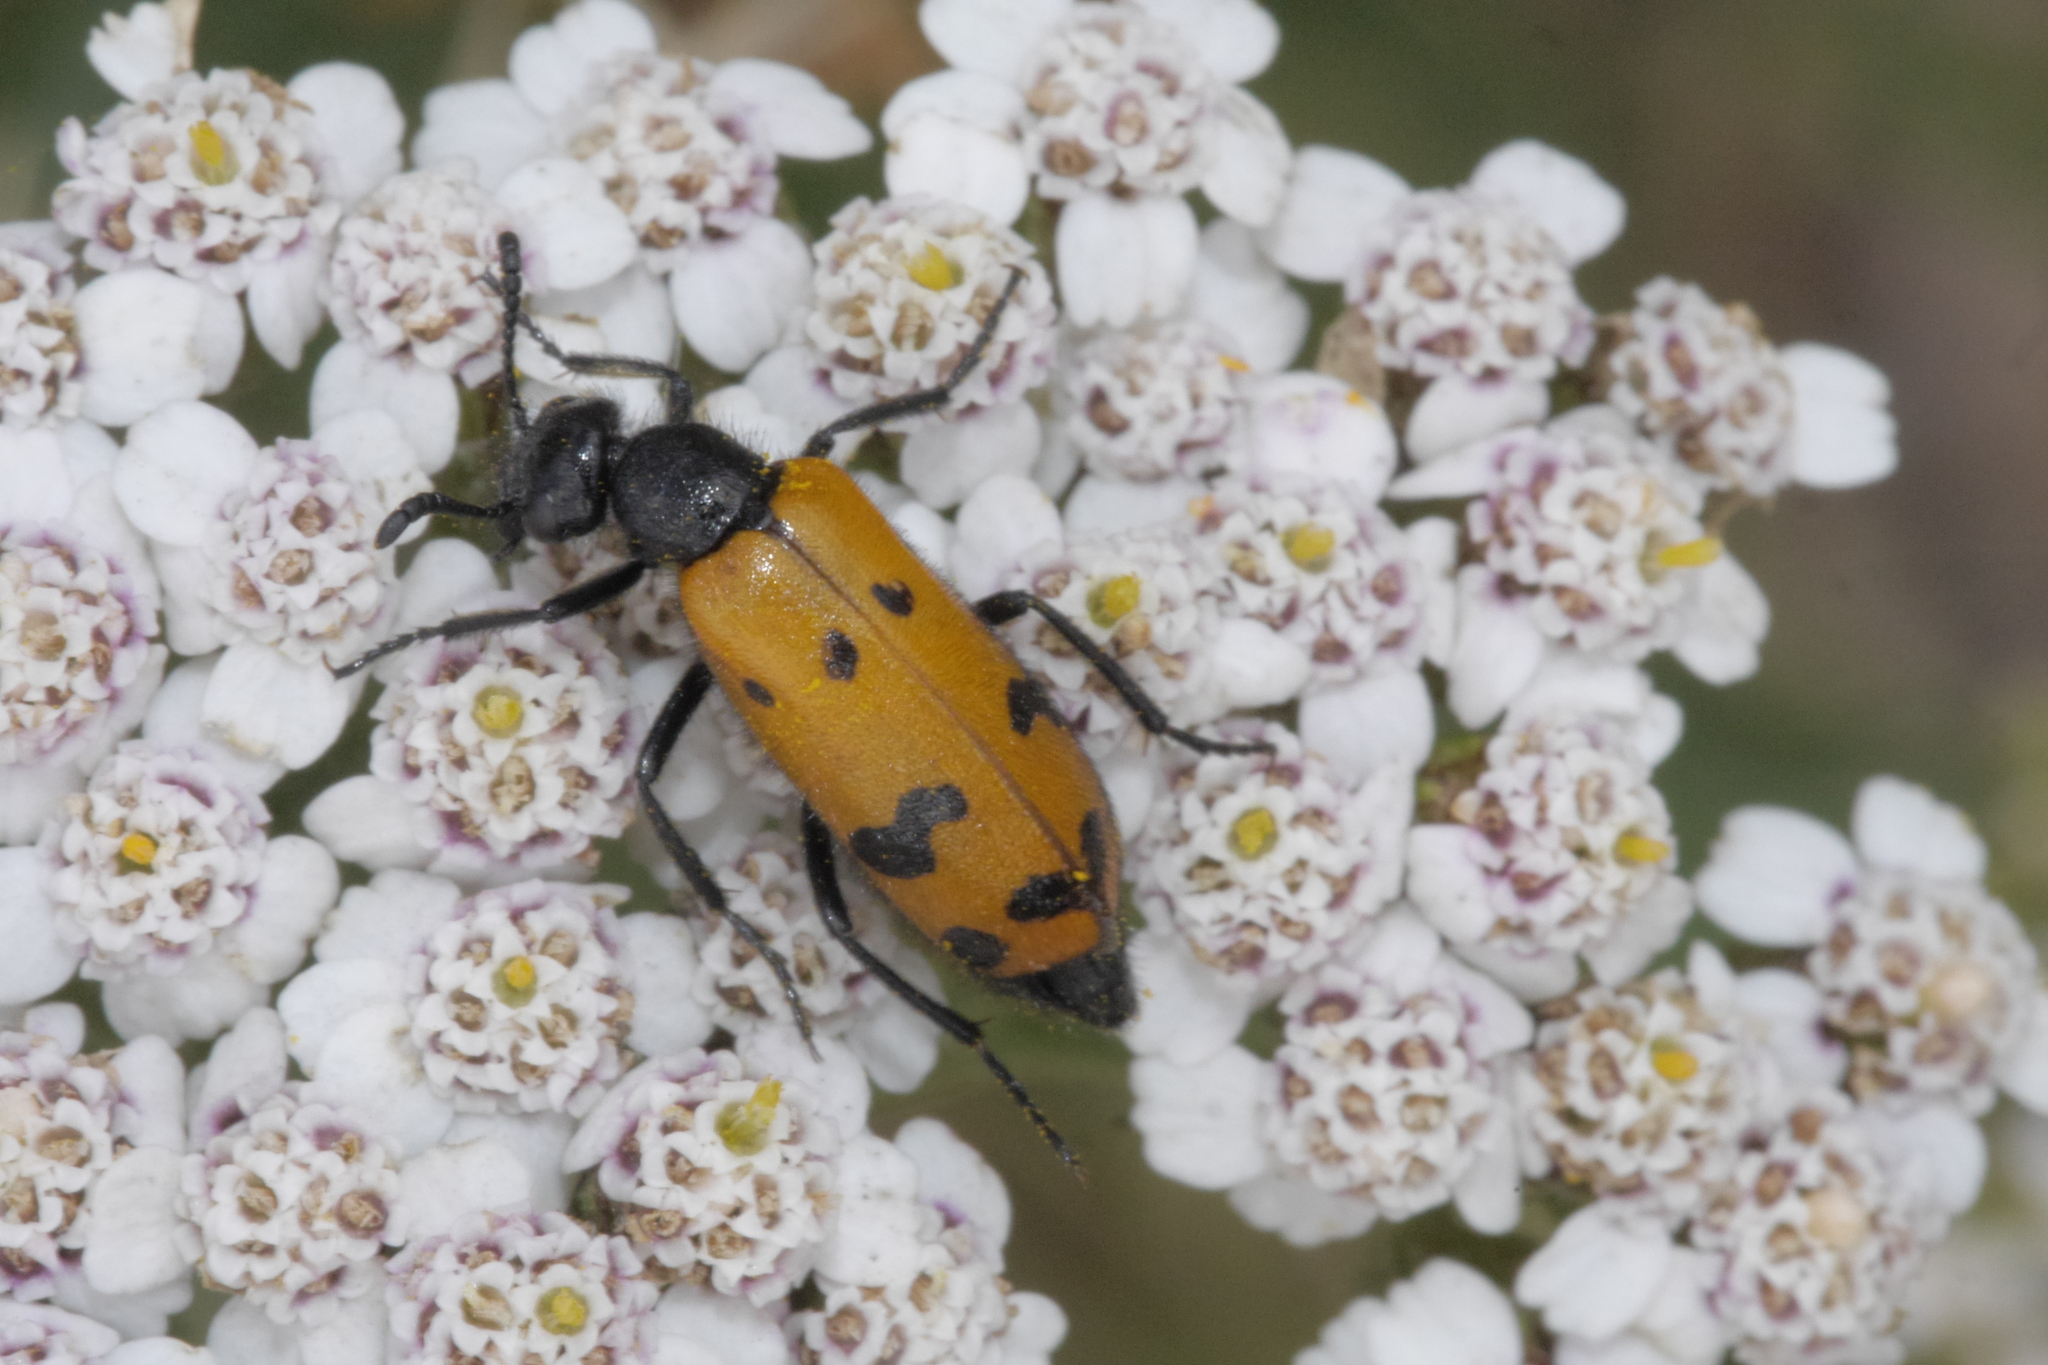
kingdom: Animalia
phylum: Arthropoda
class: Insecta
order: Coleoptera
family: Meloidae
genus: Mylabris
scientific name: Mylabris connata
